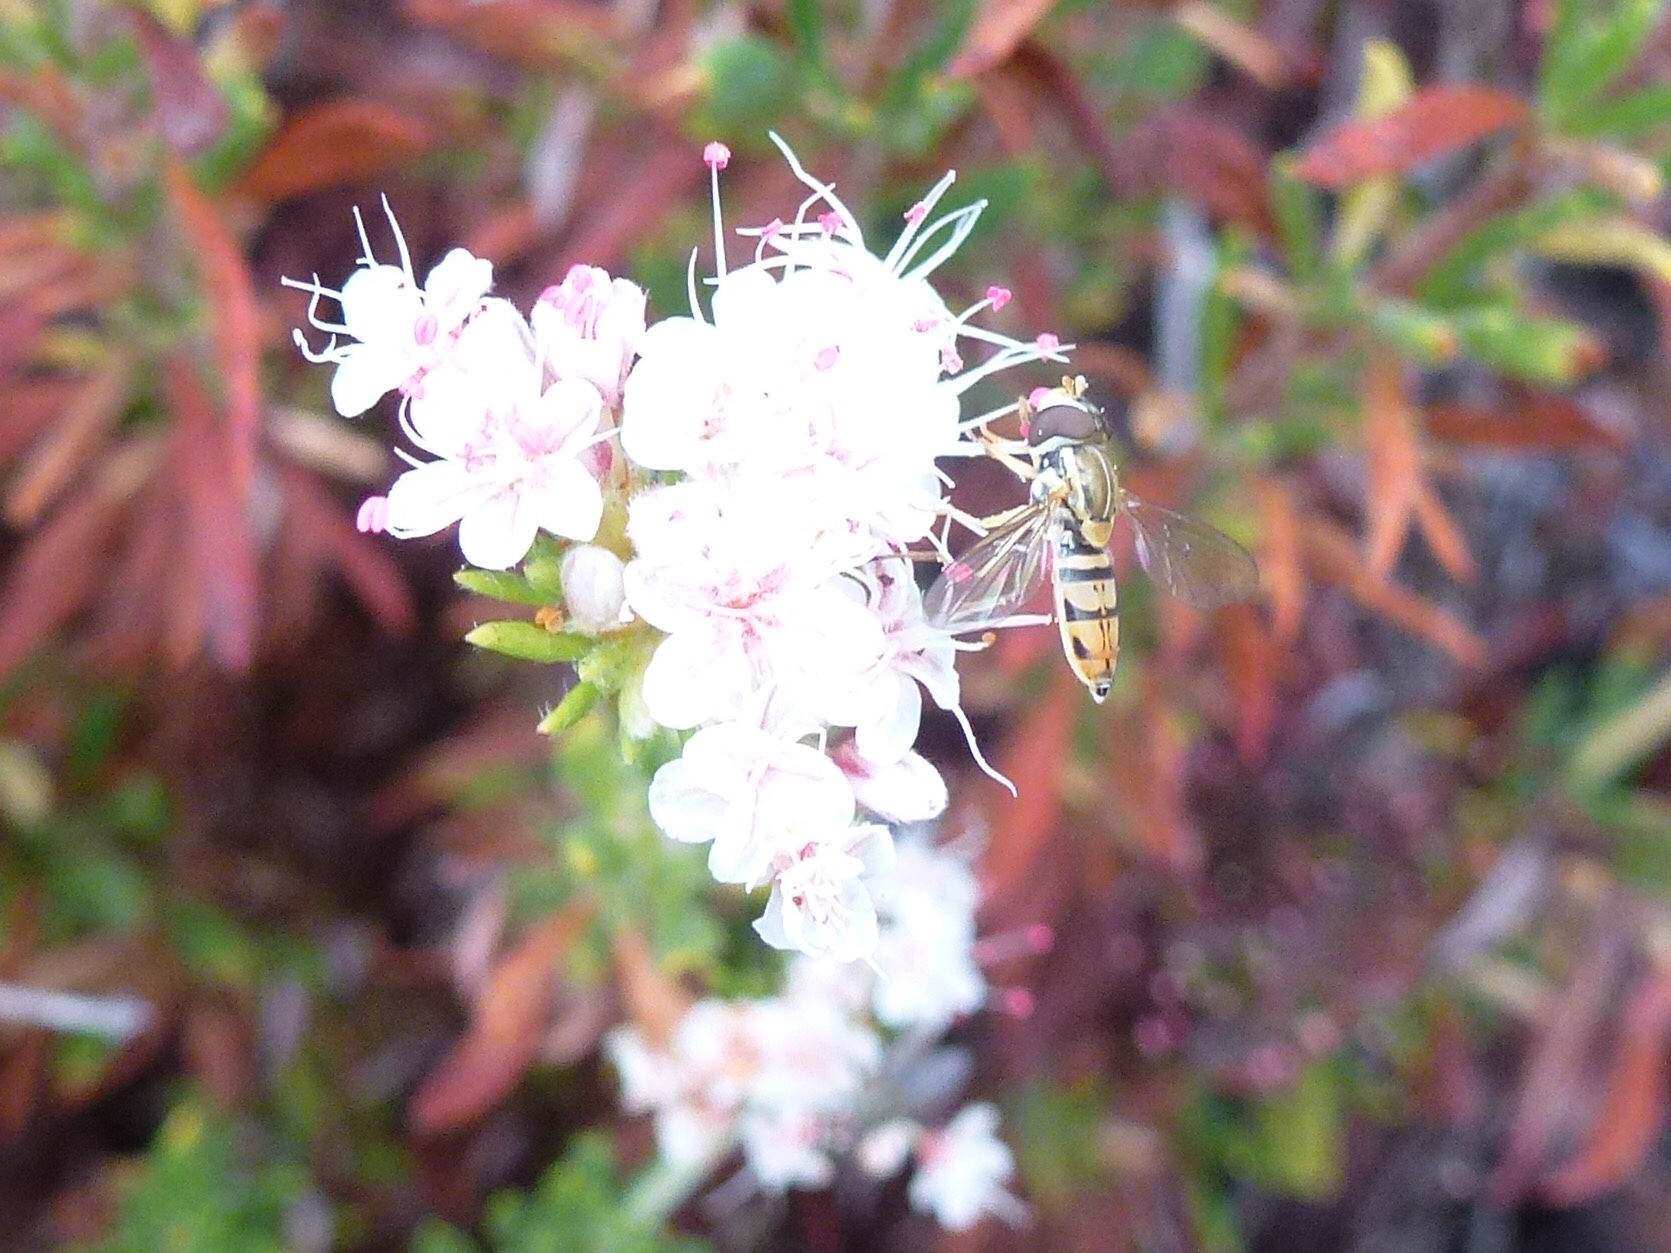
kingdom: Animalia
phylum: Arthropoda
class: Insecta
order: Diptera
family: Syrphidae
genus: Toxomerus
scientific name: Toxomerus marginatus
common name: Syrphid fly
